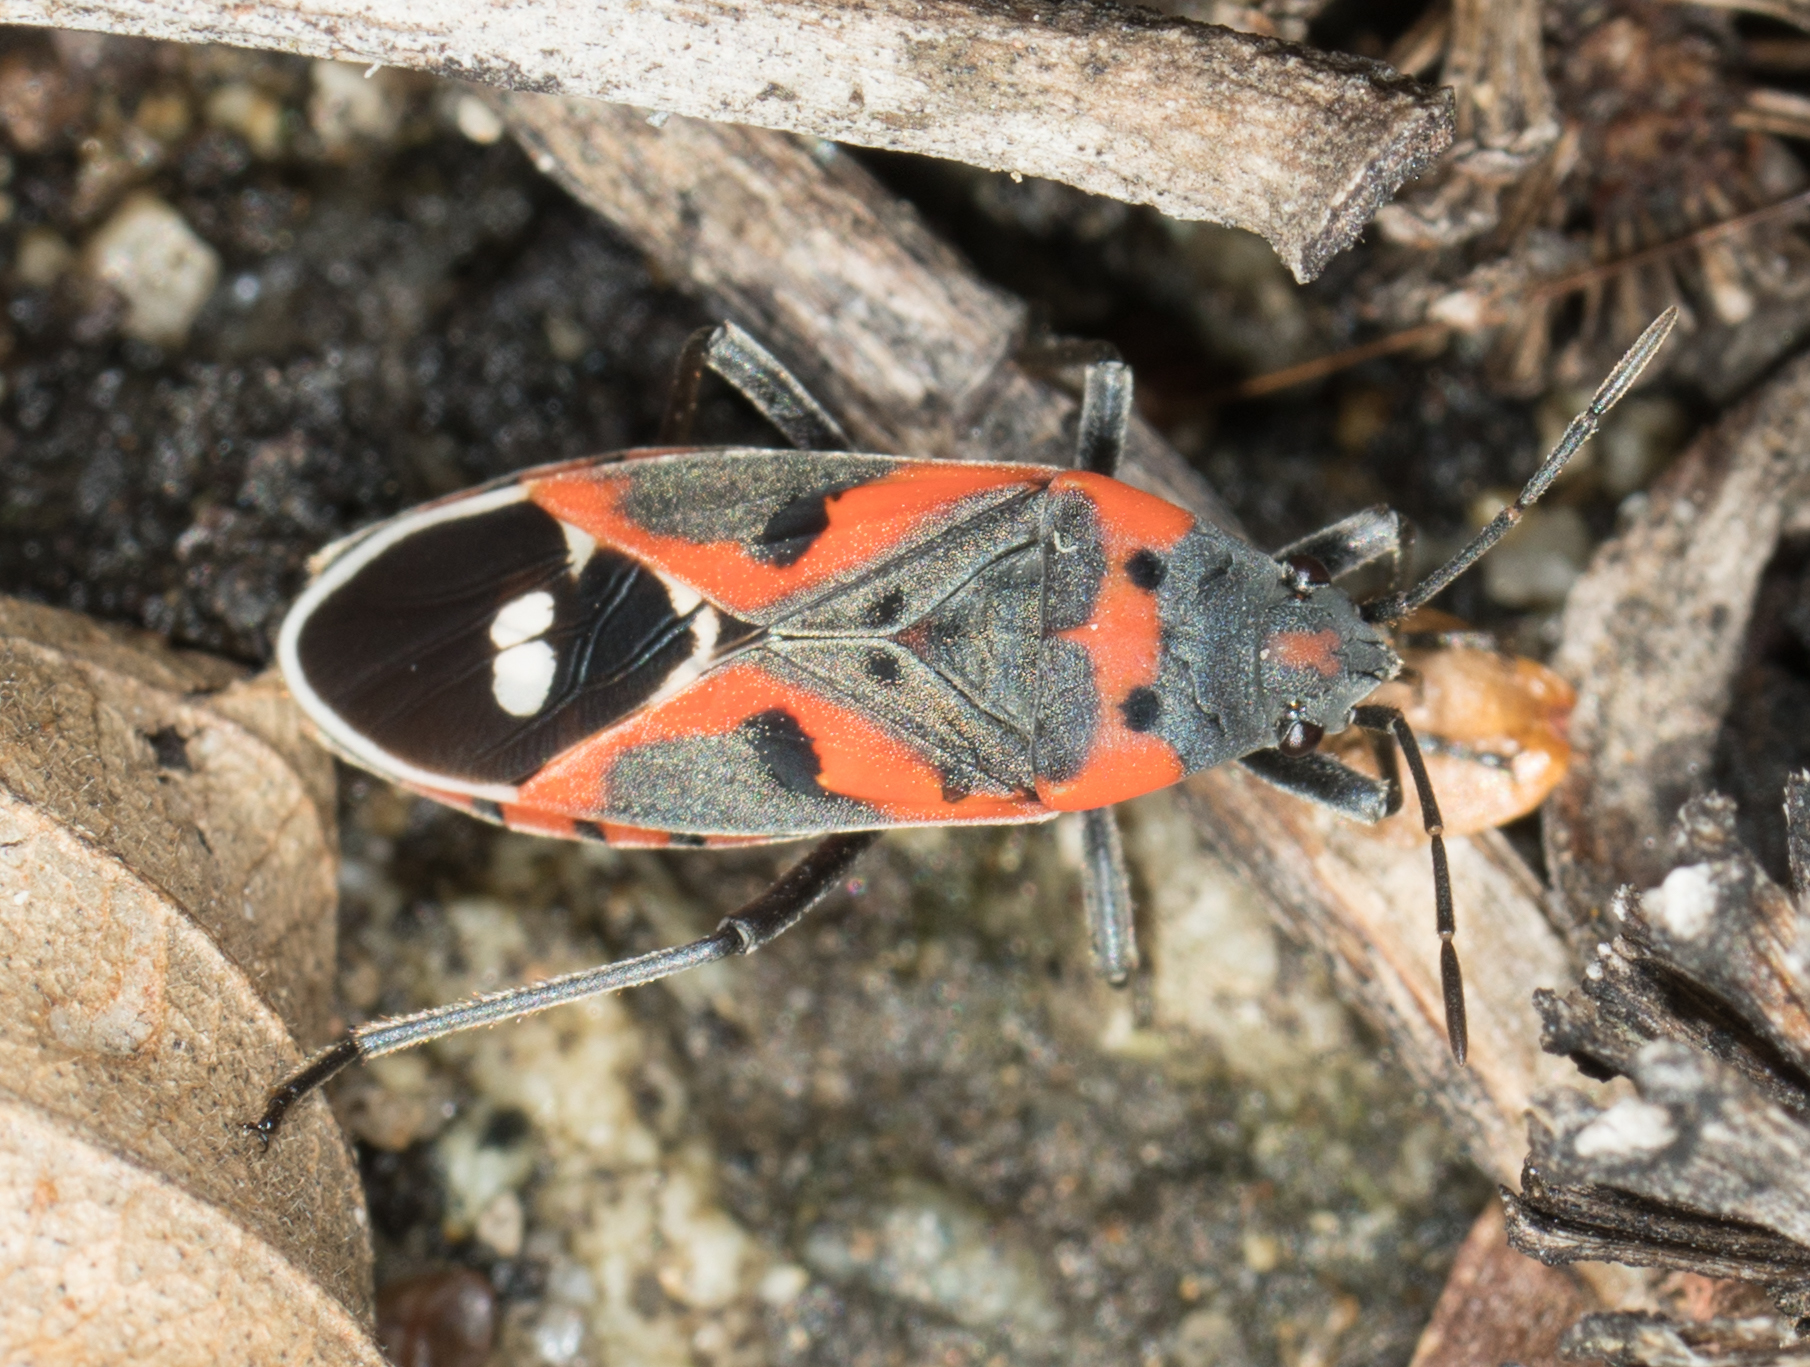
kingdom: Animalia
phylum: Arthropoda
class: Insecta
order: Hemiptera
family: Lygaeidae
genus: Lygaeus
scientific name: Lygaeus kalmii
